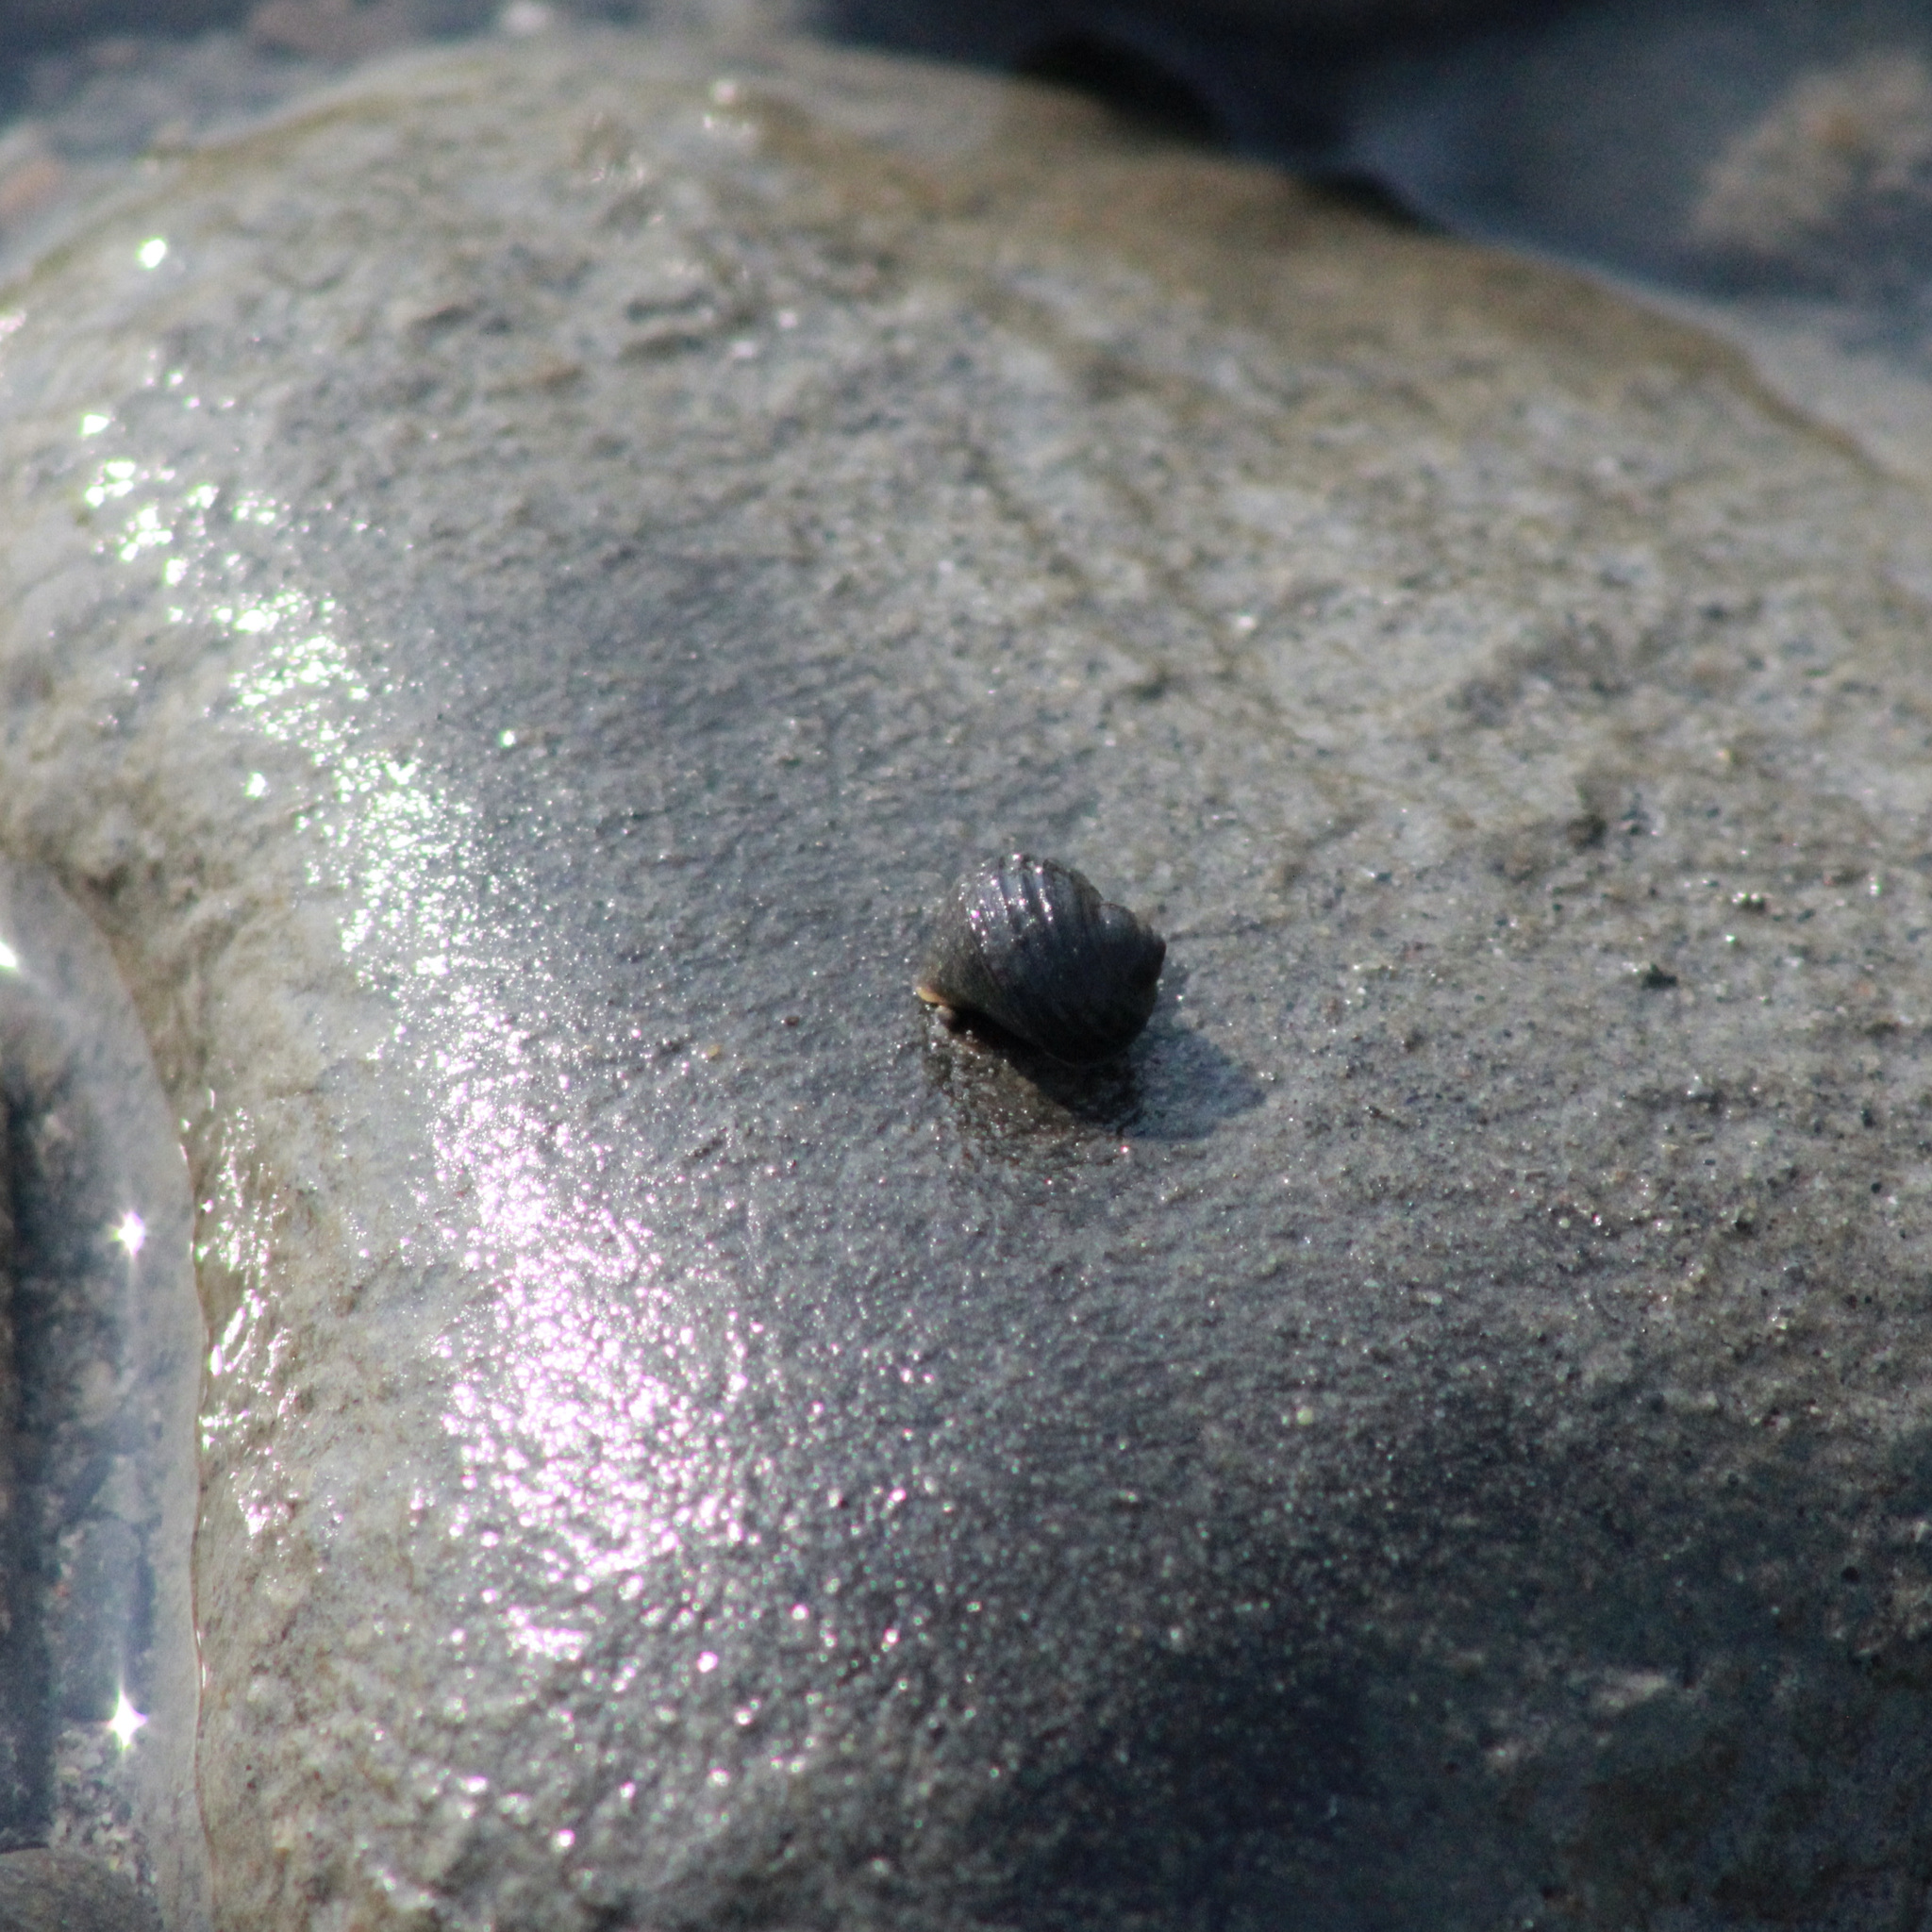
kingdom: Animalia
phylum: Mollusca
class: Gastropoda
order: Littorinimorpha
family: Littorinidae
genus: Littorina
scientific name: Littorina sitkana
